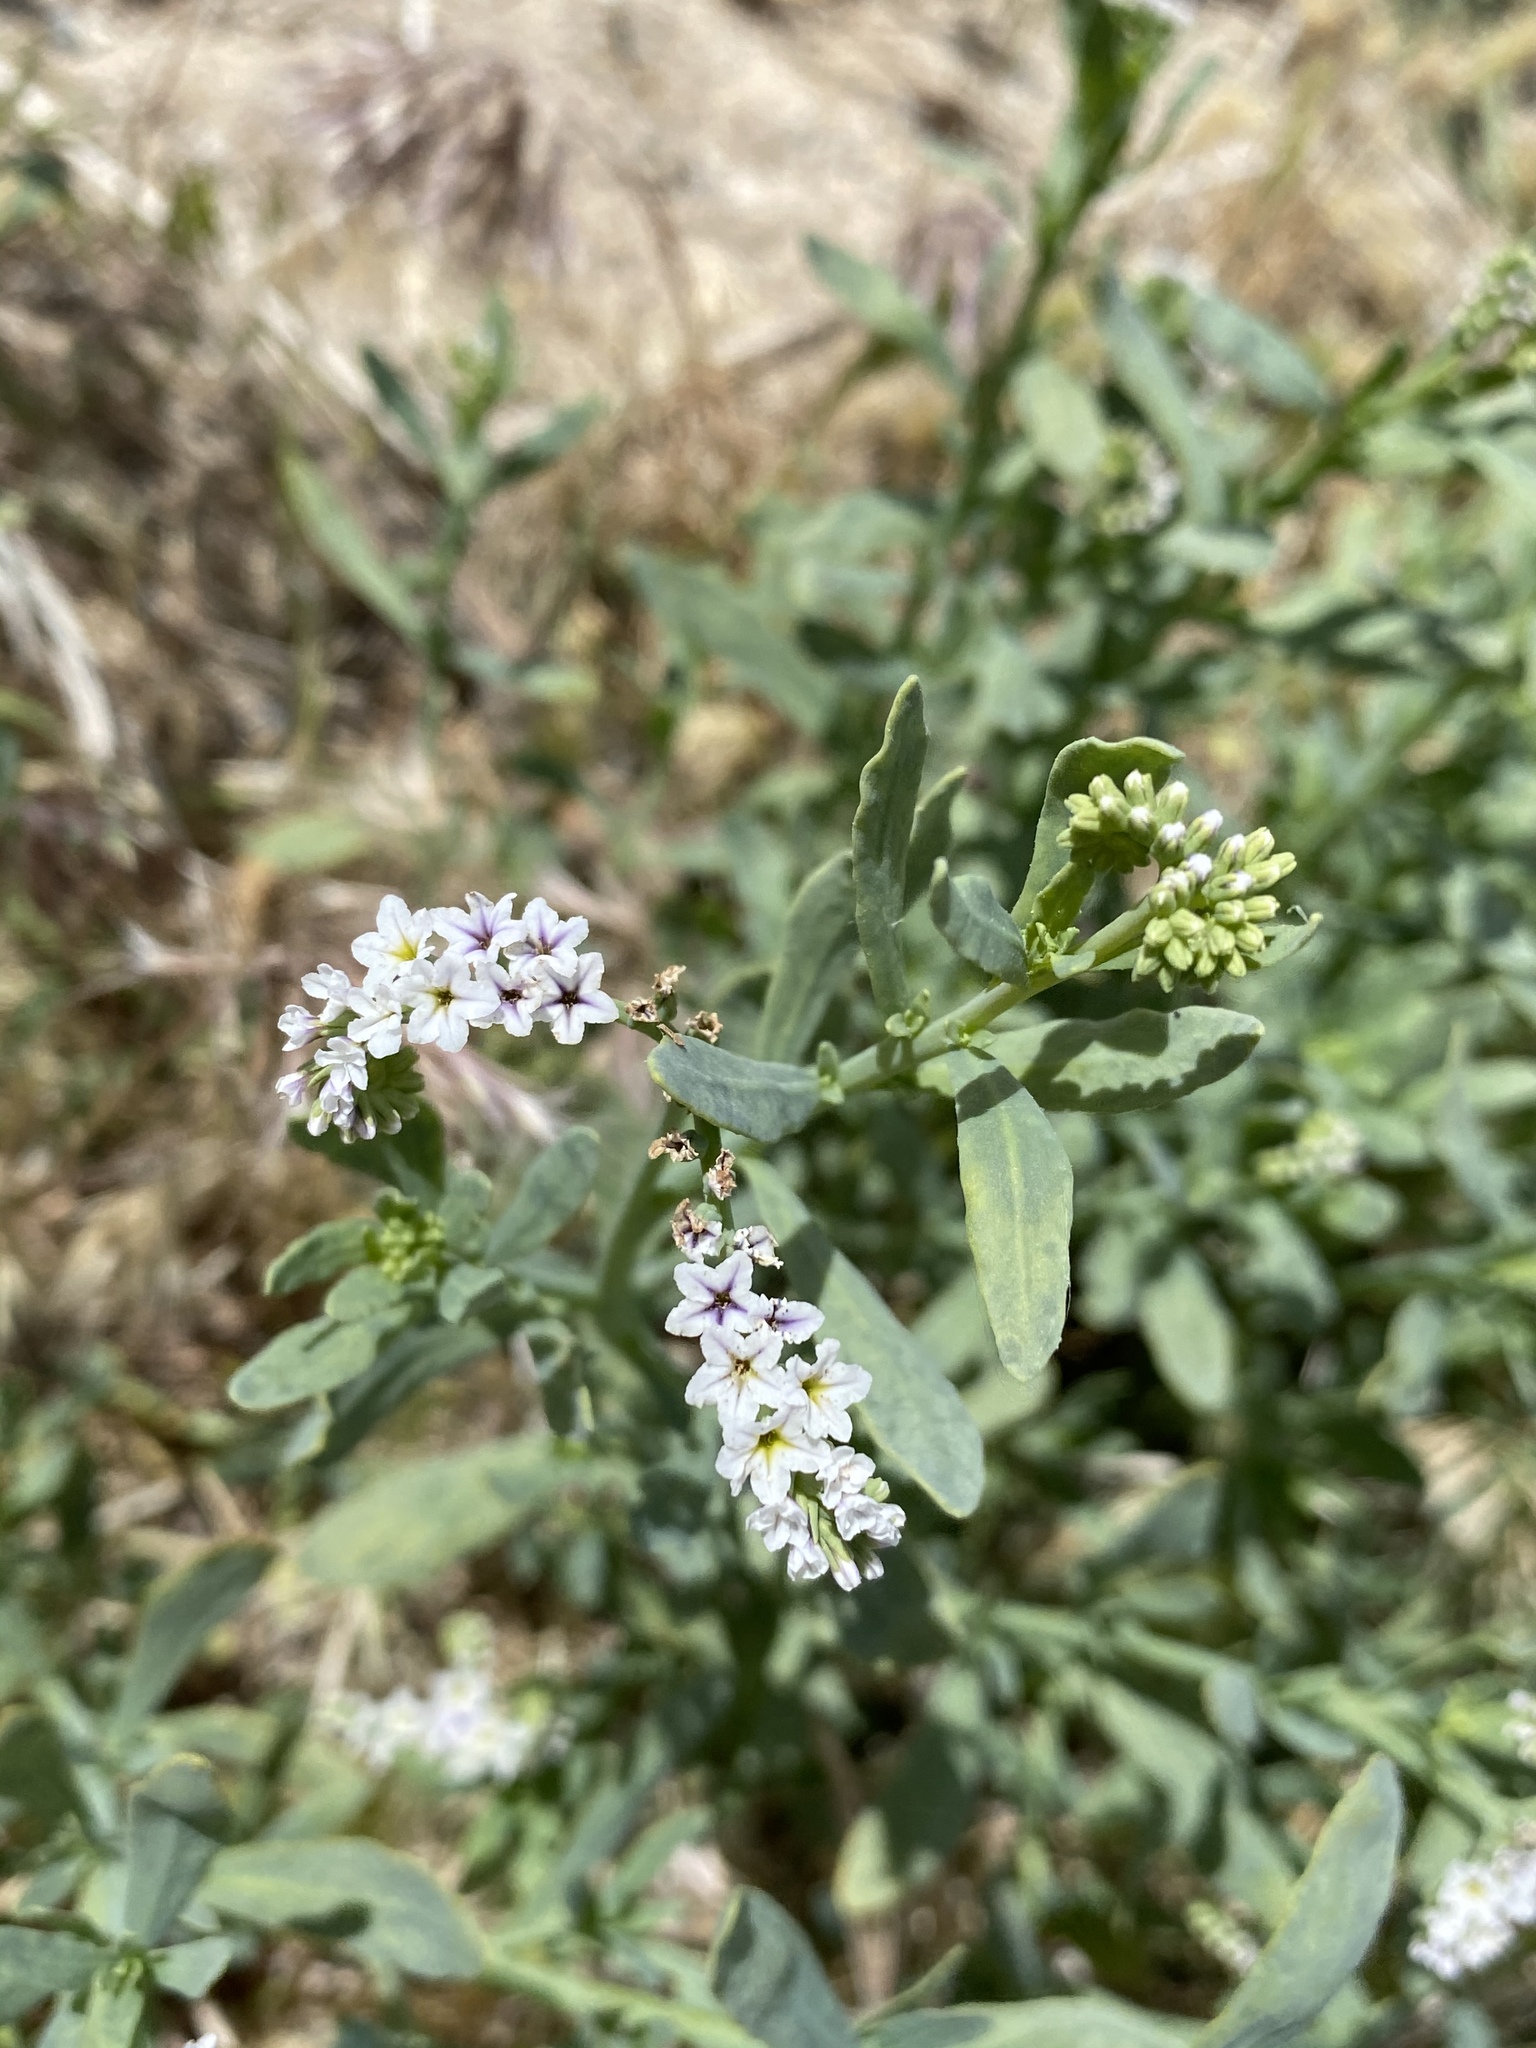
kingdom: Plantae
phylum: Tracheophyta
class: Magnoliopsida
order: Boraginales
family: Heliotropiaceae
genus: Heliotropium
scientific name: Heliotropium curassavicum
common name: Seaside heliotrope
